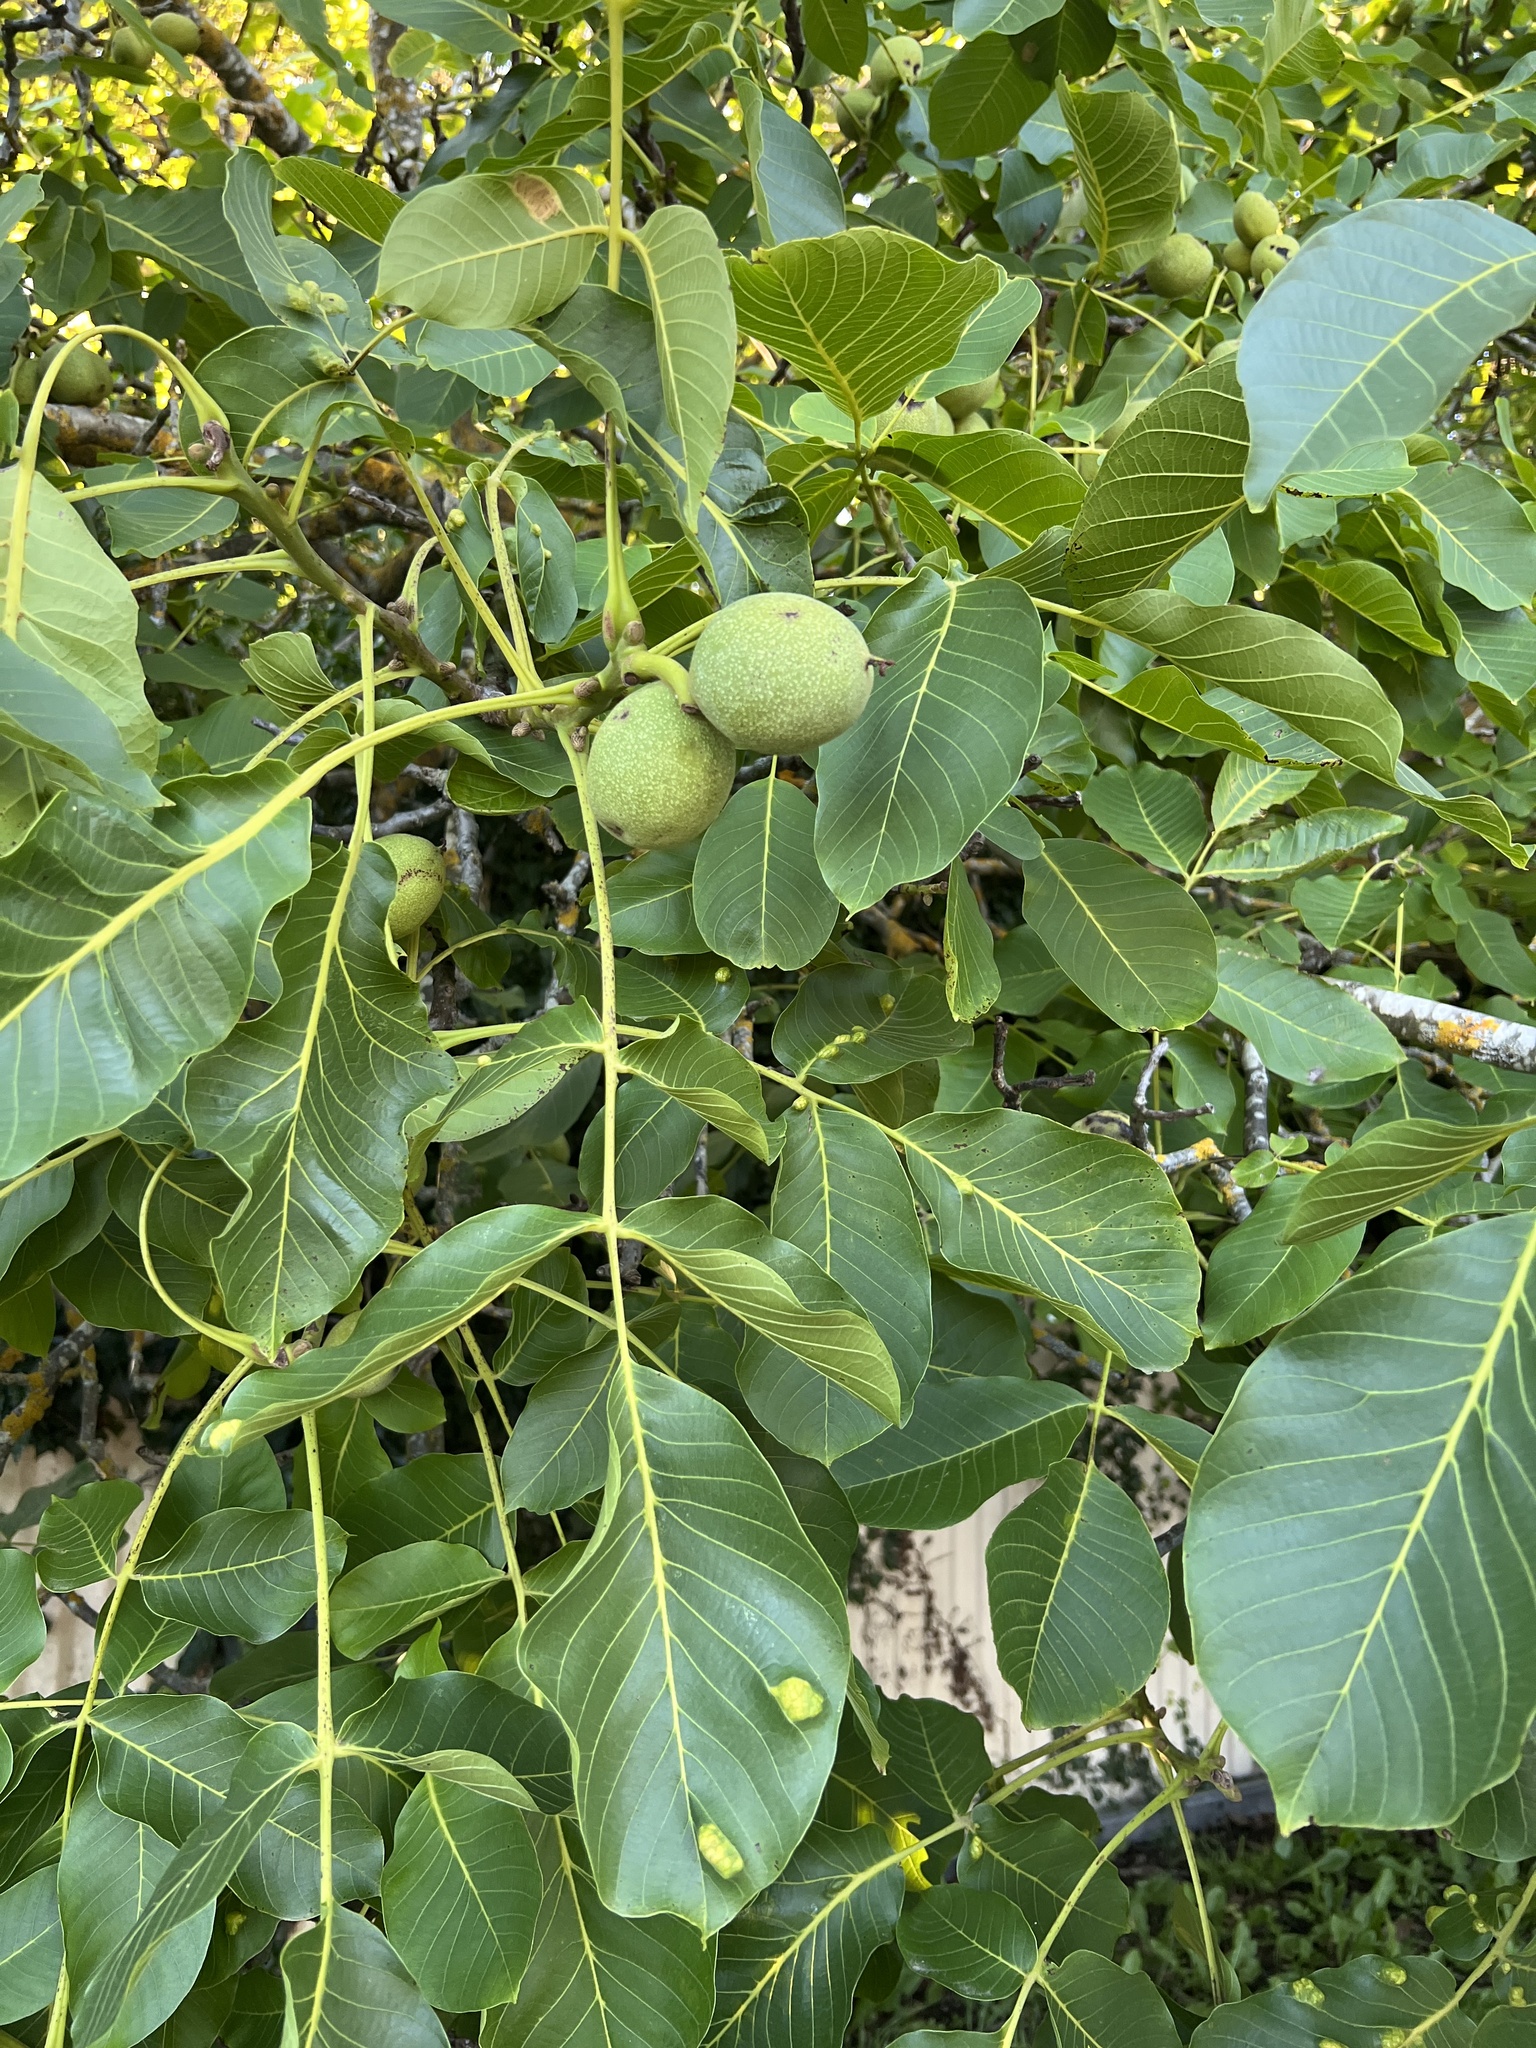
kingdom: Plantae
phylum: Tracheophyta
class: Magnoliopsida
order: Fagales
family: Juglandaceae
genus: Juglans
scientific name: Juglans regia
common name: Walnut
